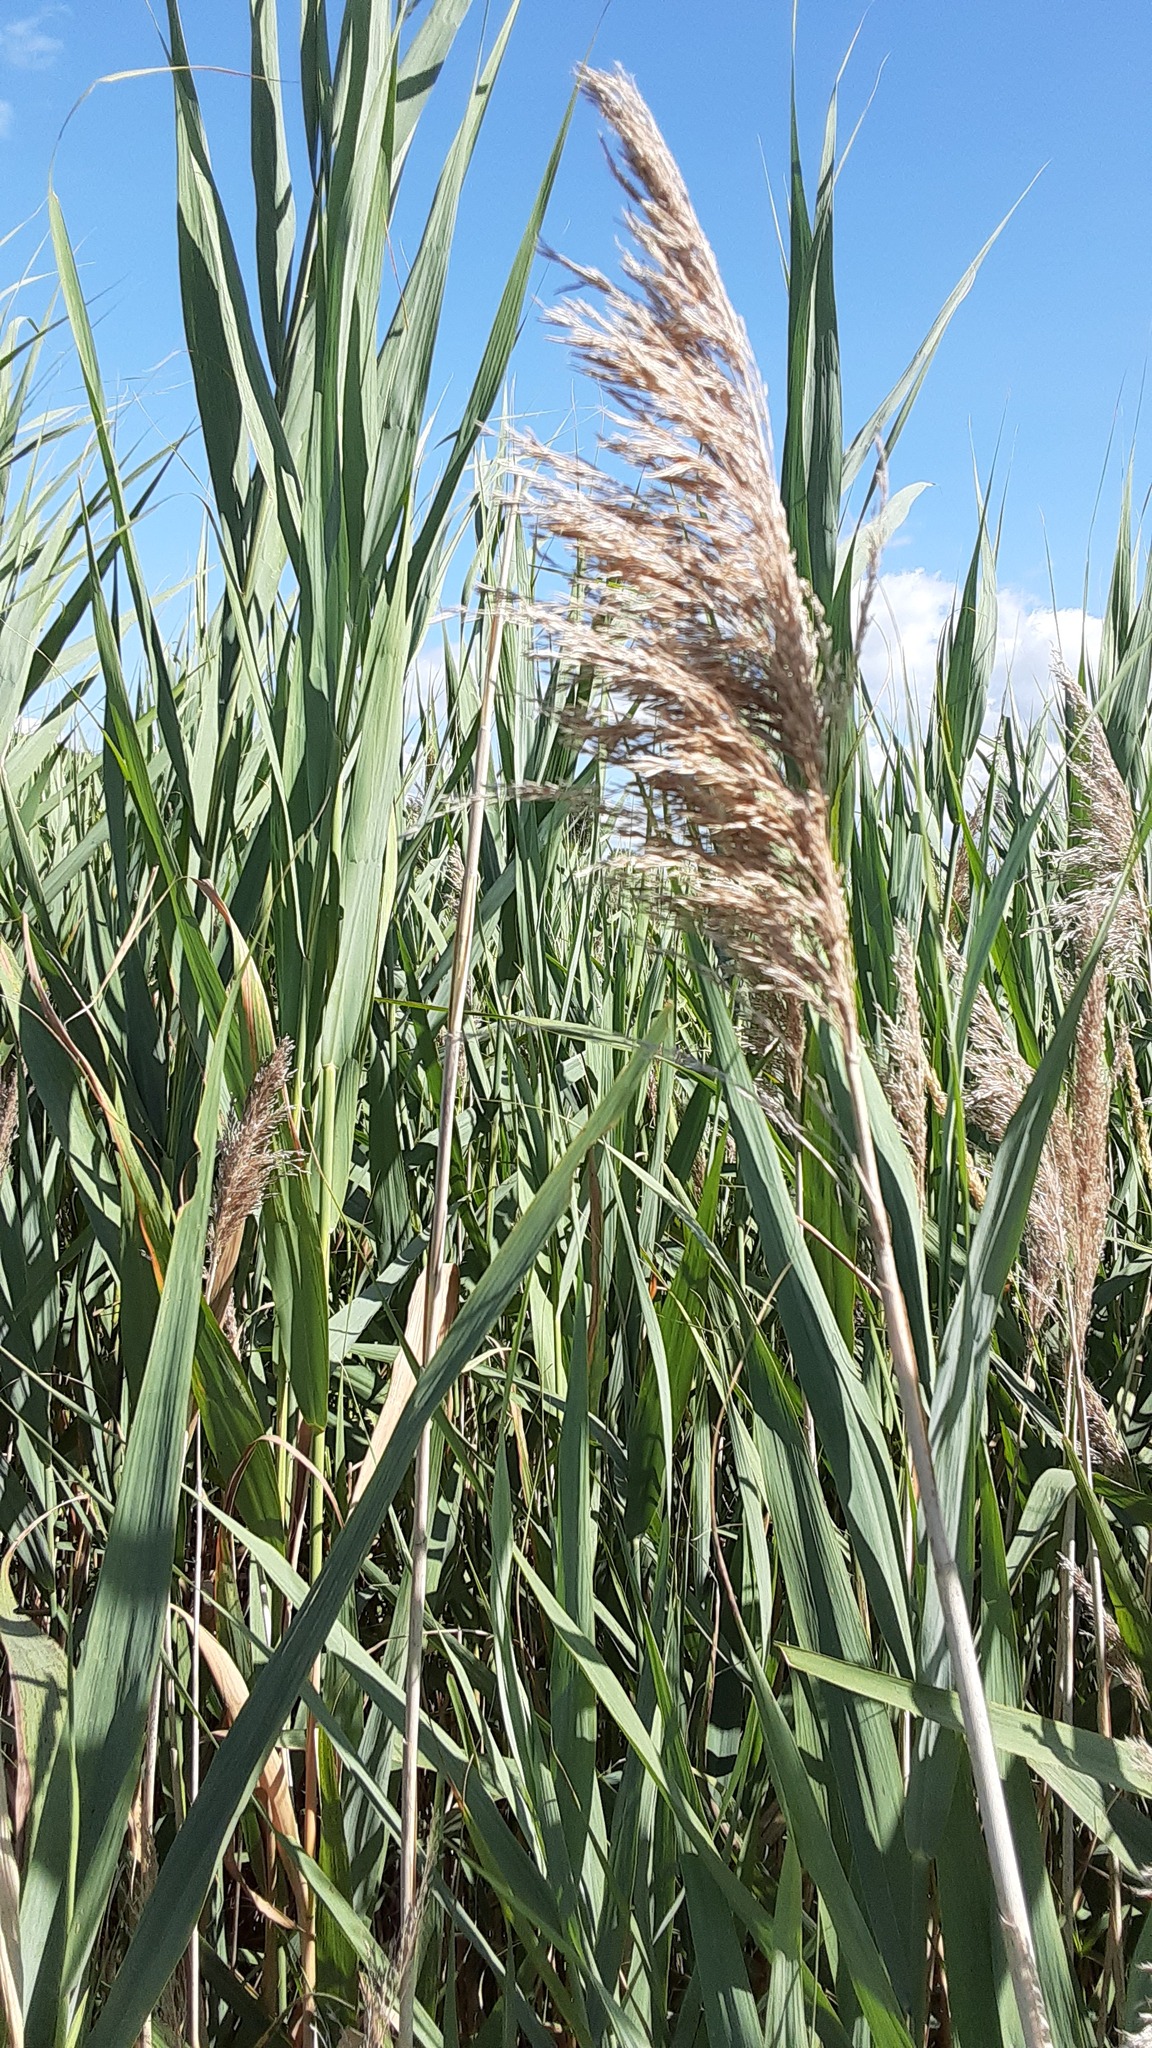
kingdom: Plantae
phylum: Tracheophyta
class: Liliopsida
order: Poales
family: Poaceae
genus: Phragmites
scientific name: Phragmites australis
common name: Common reed
